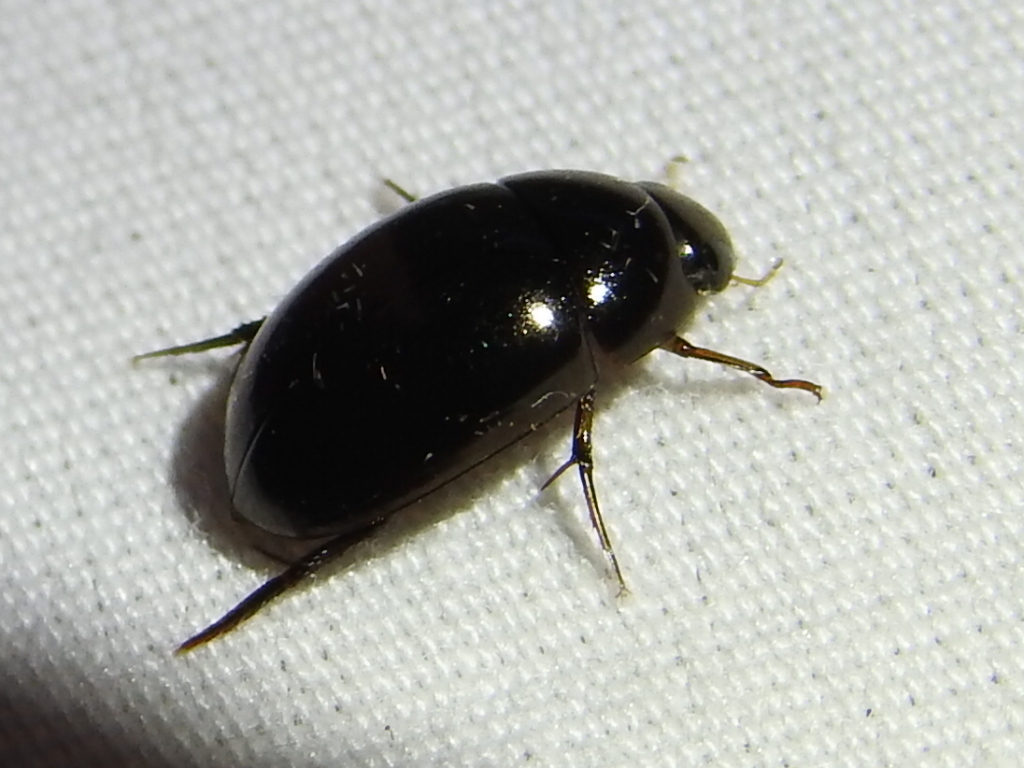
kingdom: Animalia
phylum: Arthropoda
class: Insecta
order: Coleoptera
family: Hydrophilidae
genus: Tropisternus
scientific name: Tropisternus
